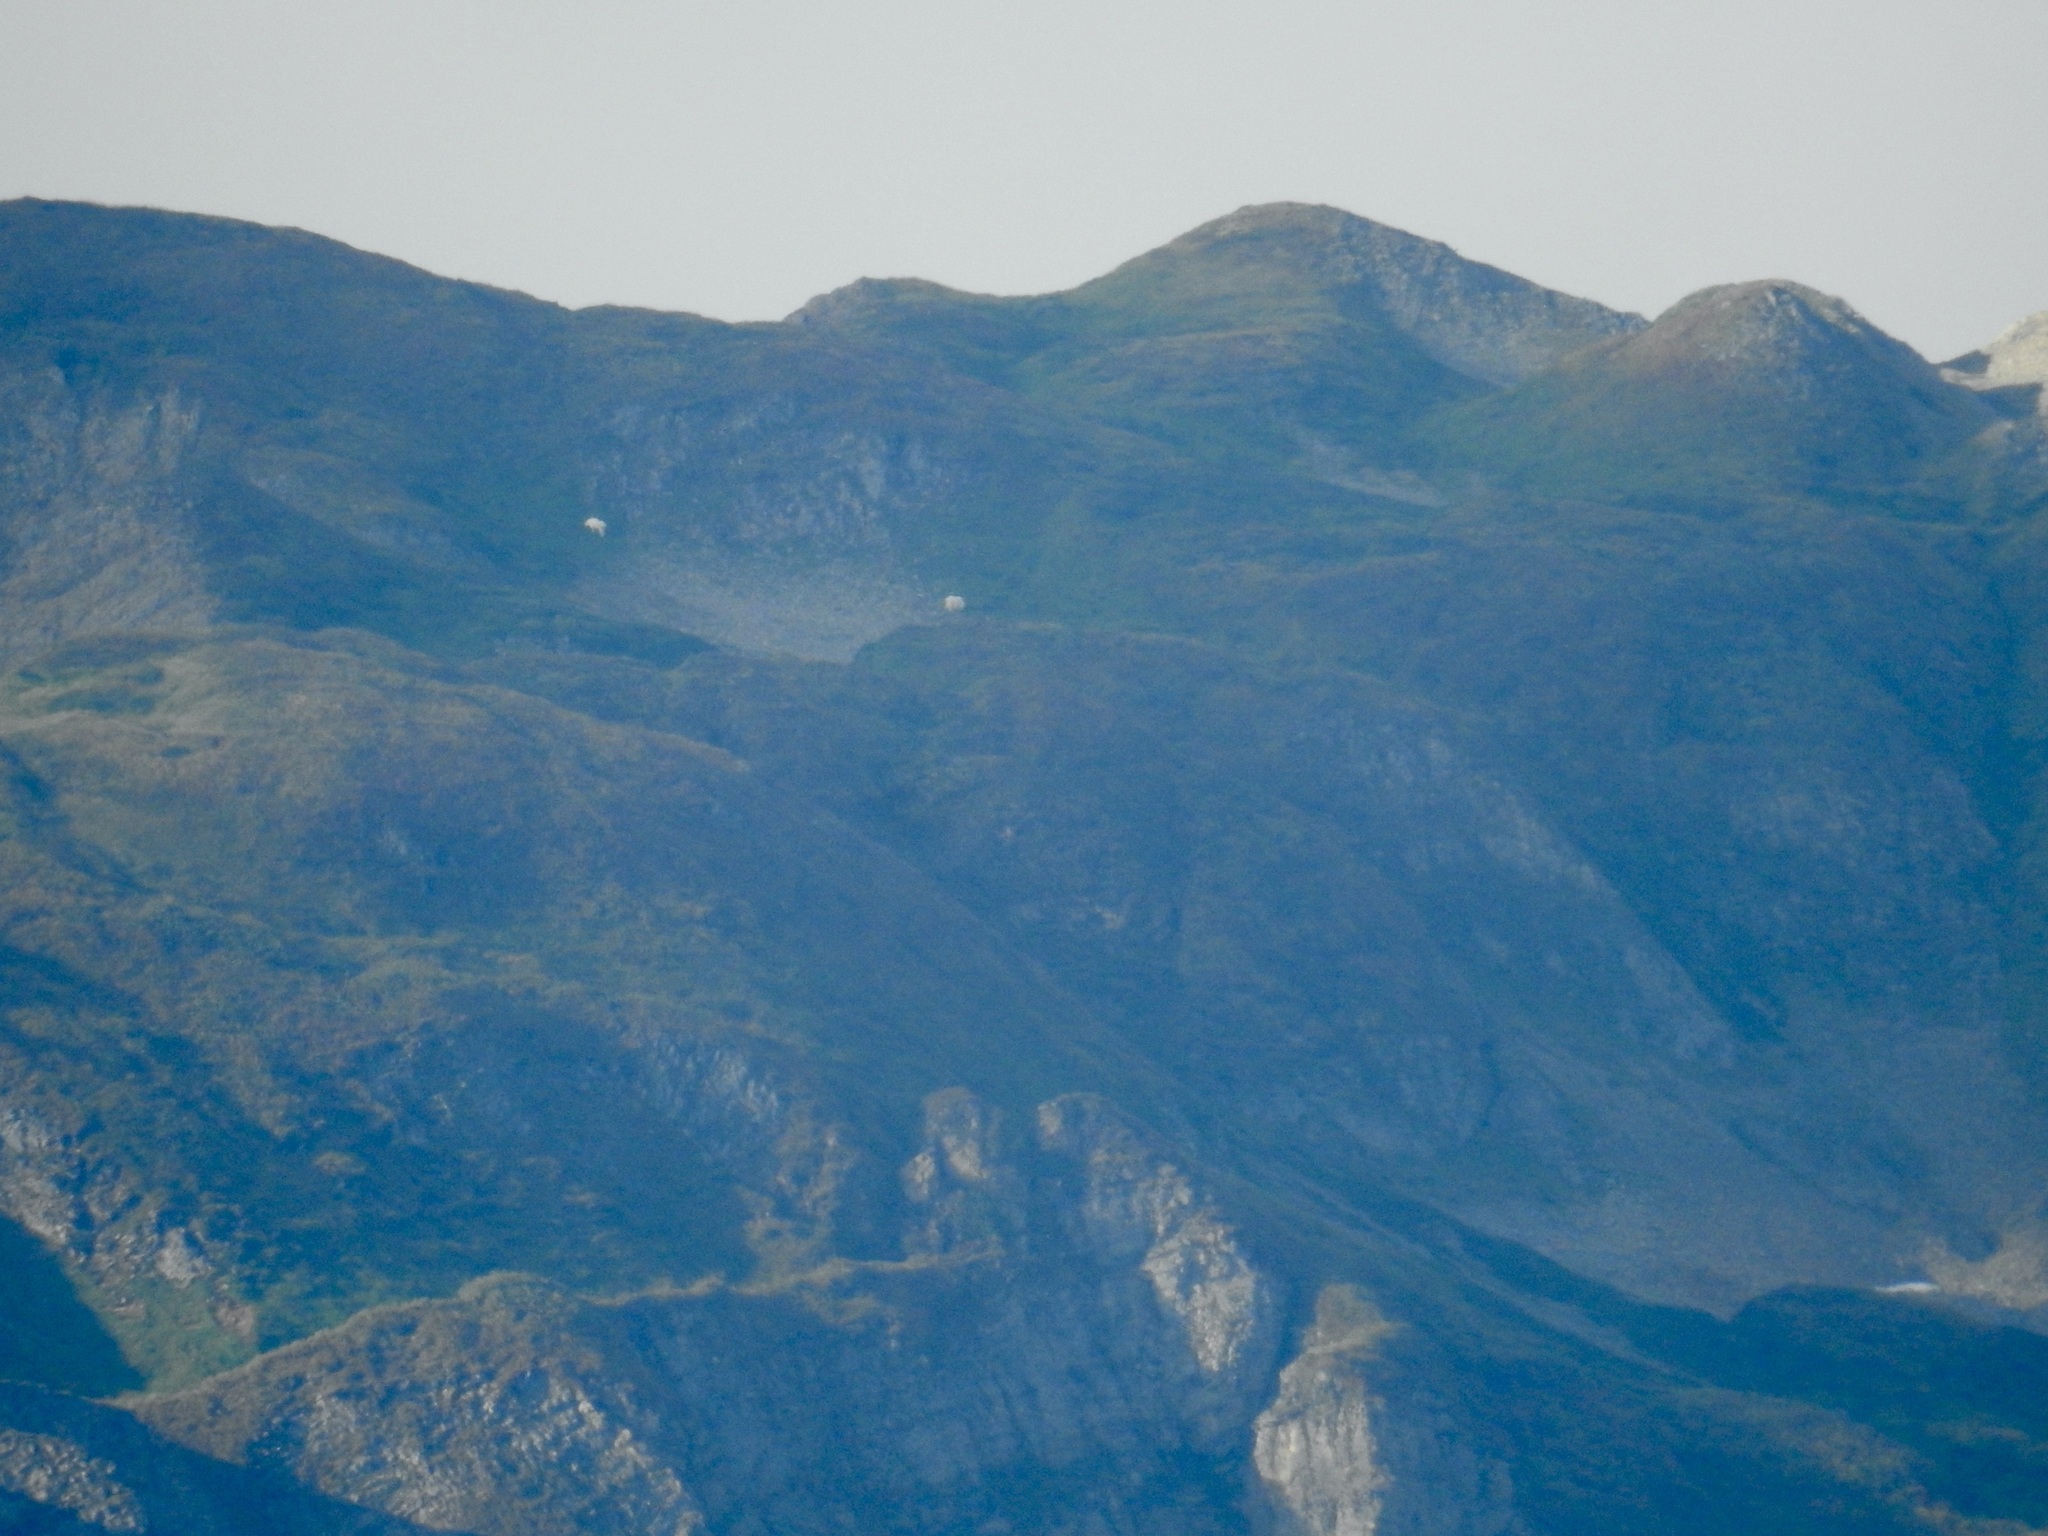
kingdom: Animalia
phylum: Chordata
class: Mammalia
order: Artiodactyla
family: Bovidae
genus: Oreamnos
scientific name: Oreamnos americanus
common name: Mountain goat
